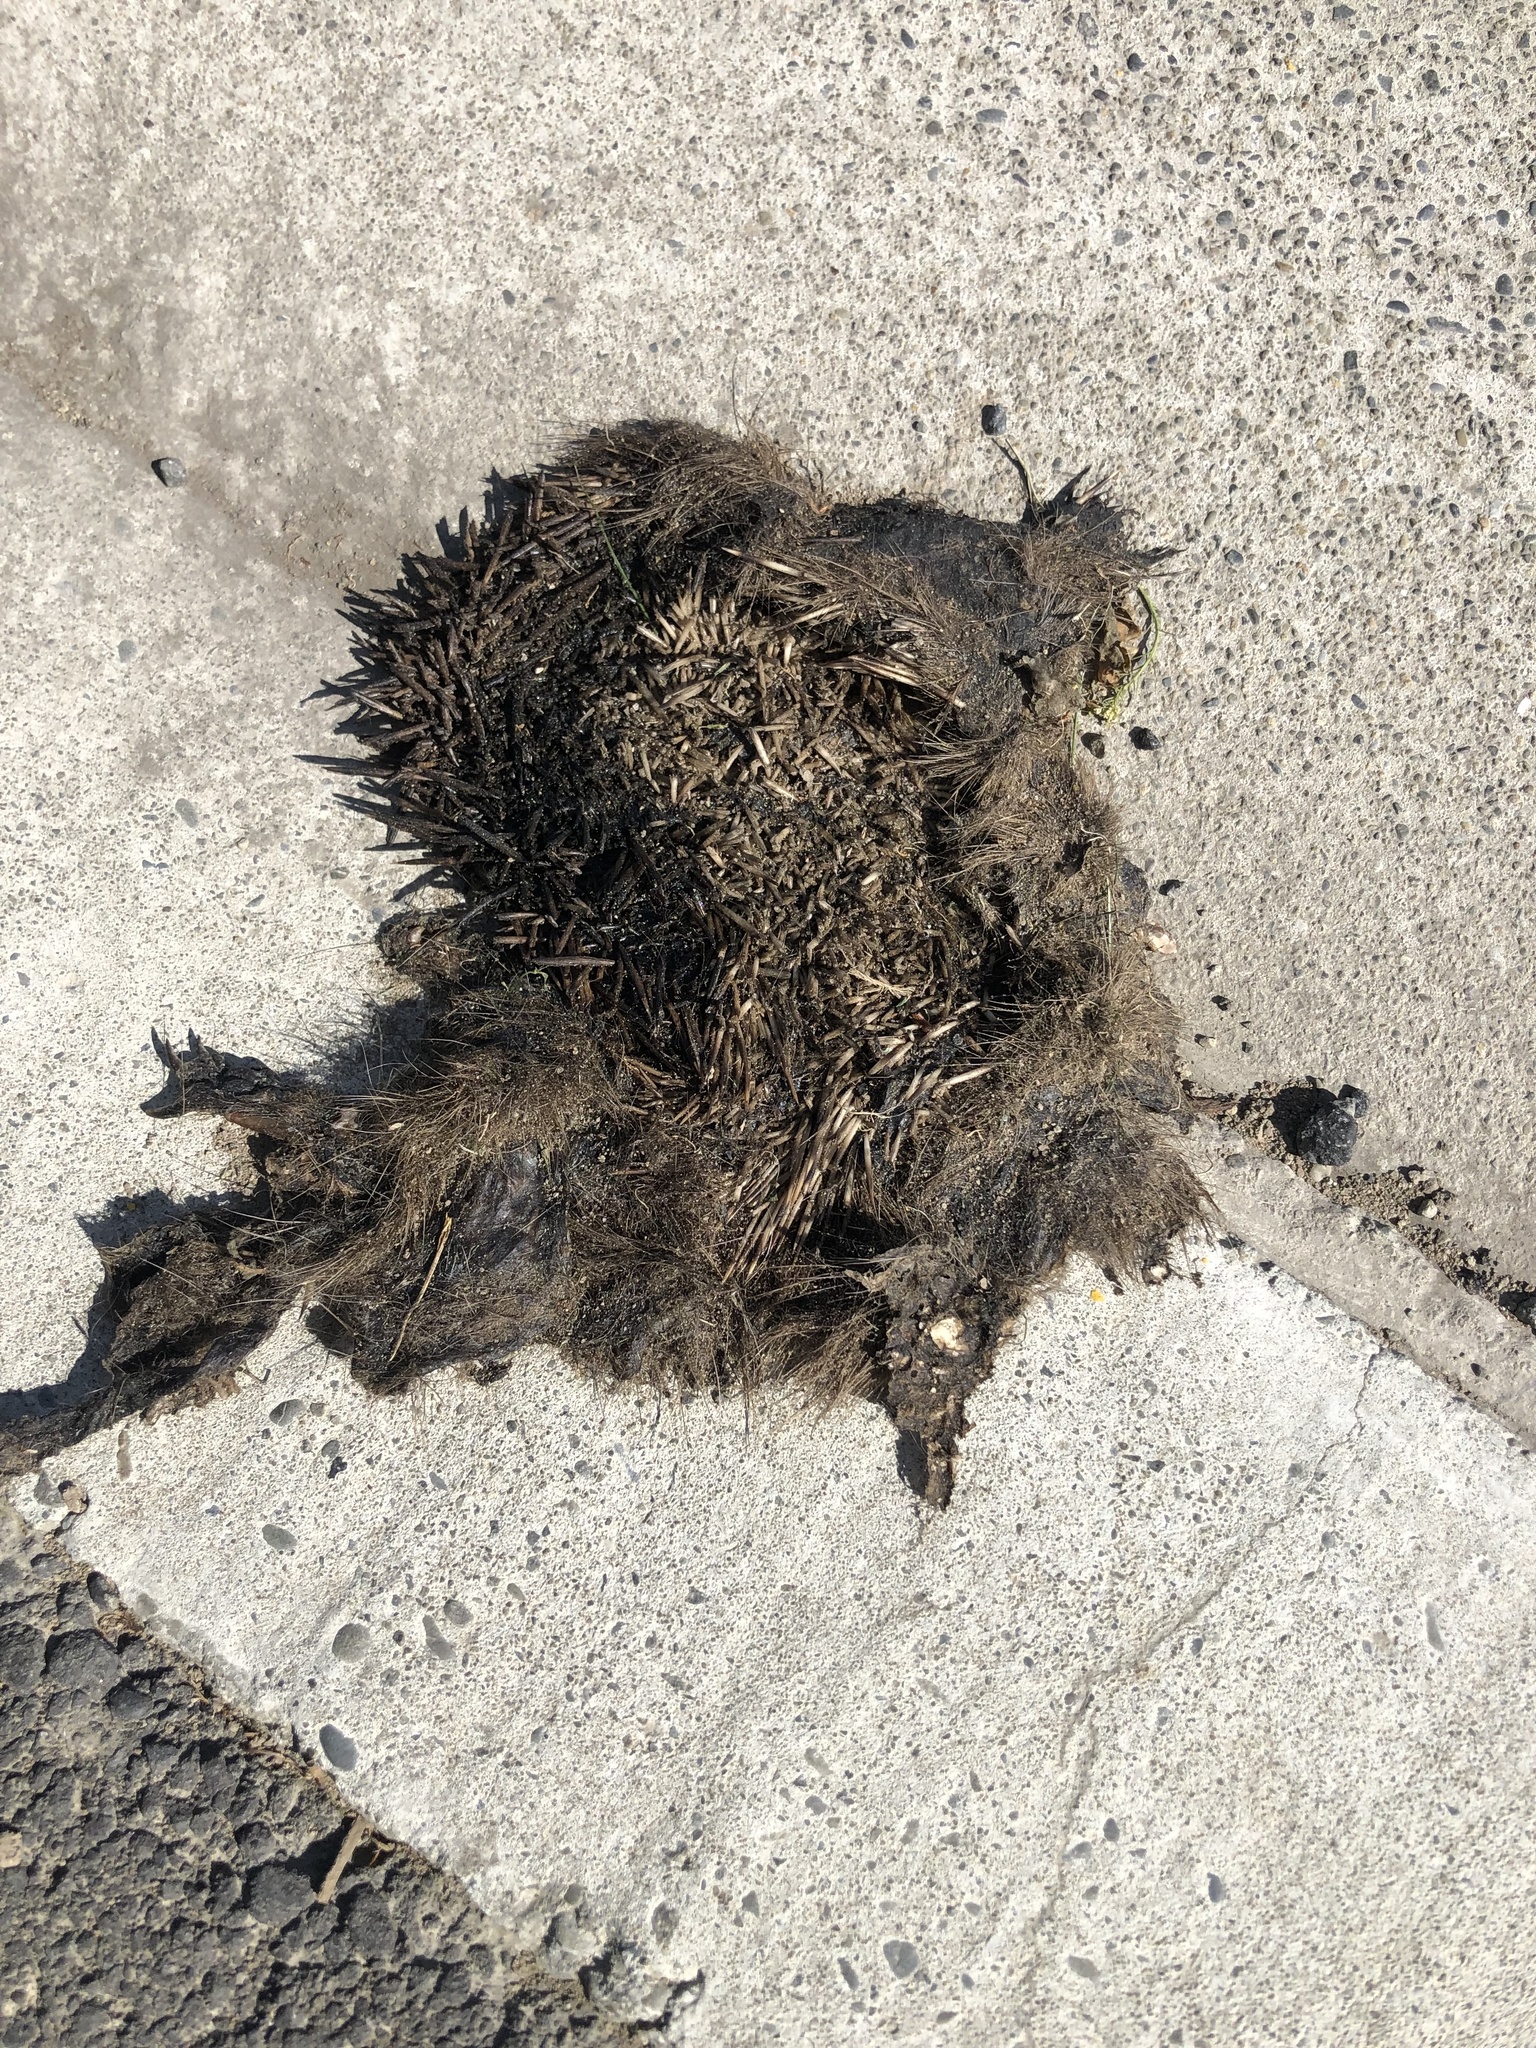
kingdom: Animalia
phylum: Chordata
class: Mammalia
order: Erinaceomorpha
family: Erinaceidae
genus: Erinaceus
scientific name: Erinaceus europaeus
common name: West european hedgehog
